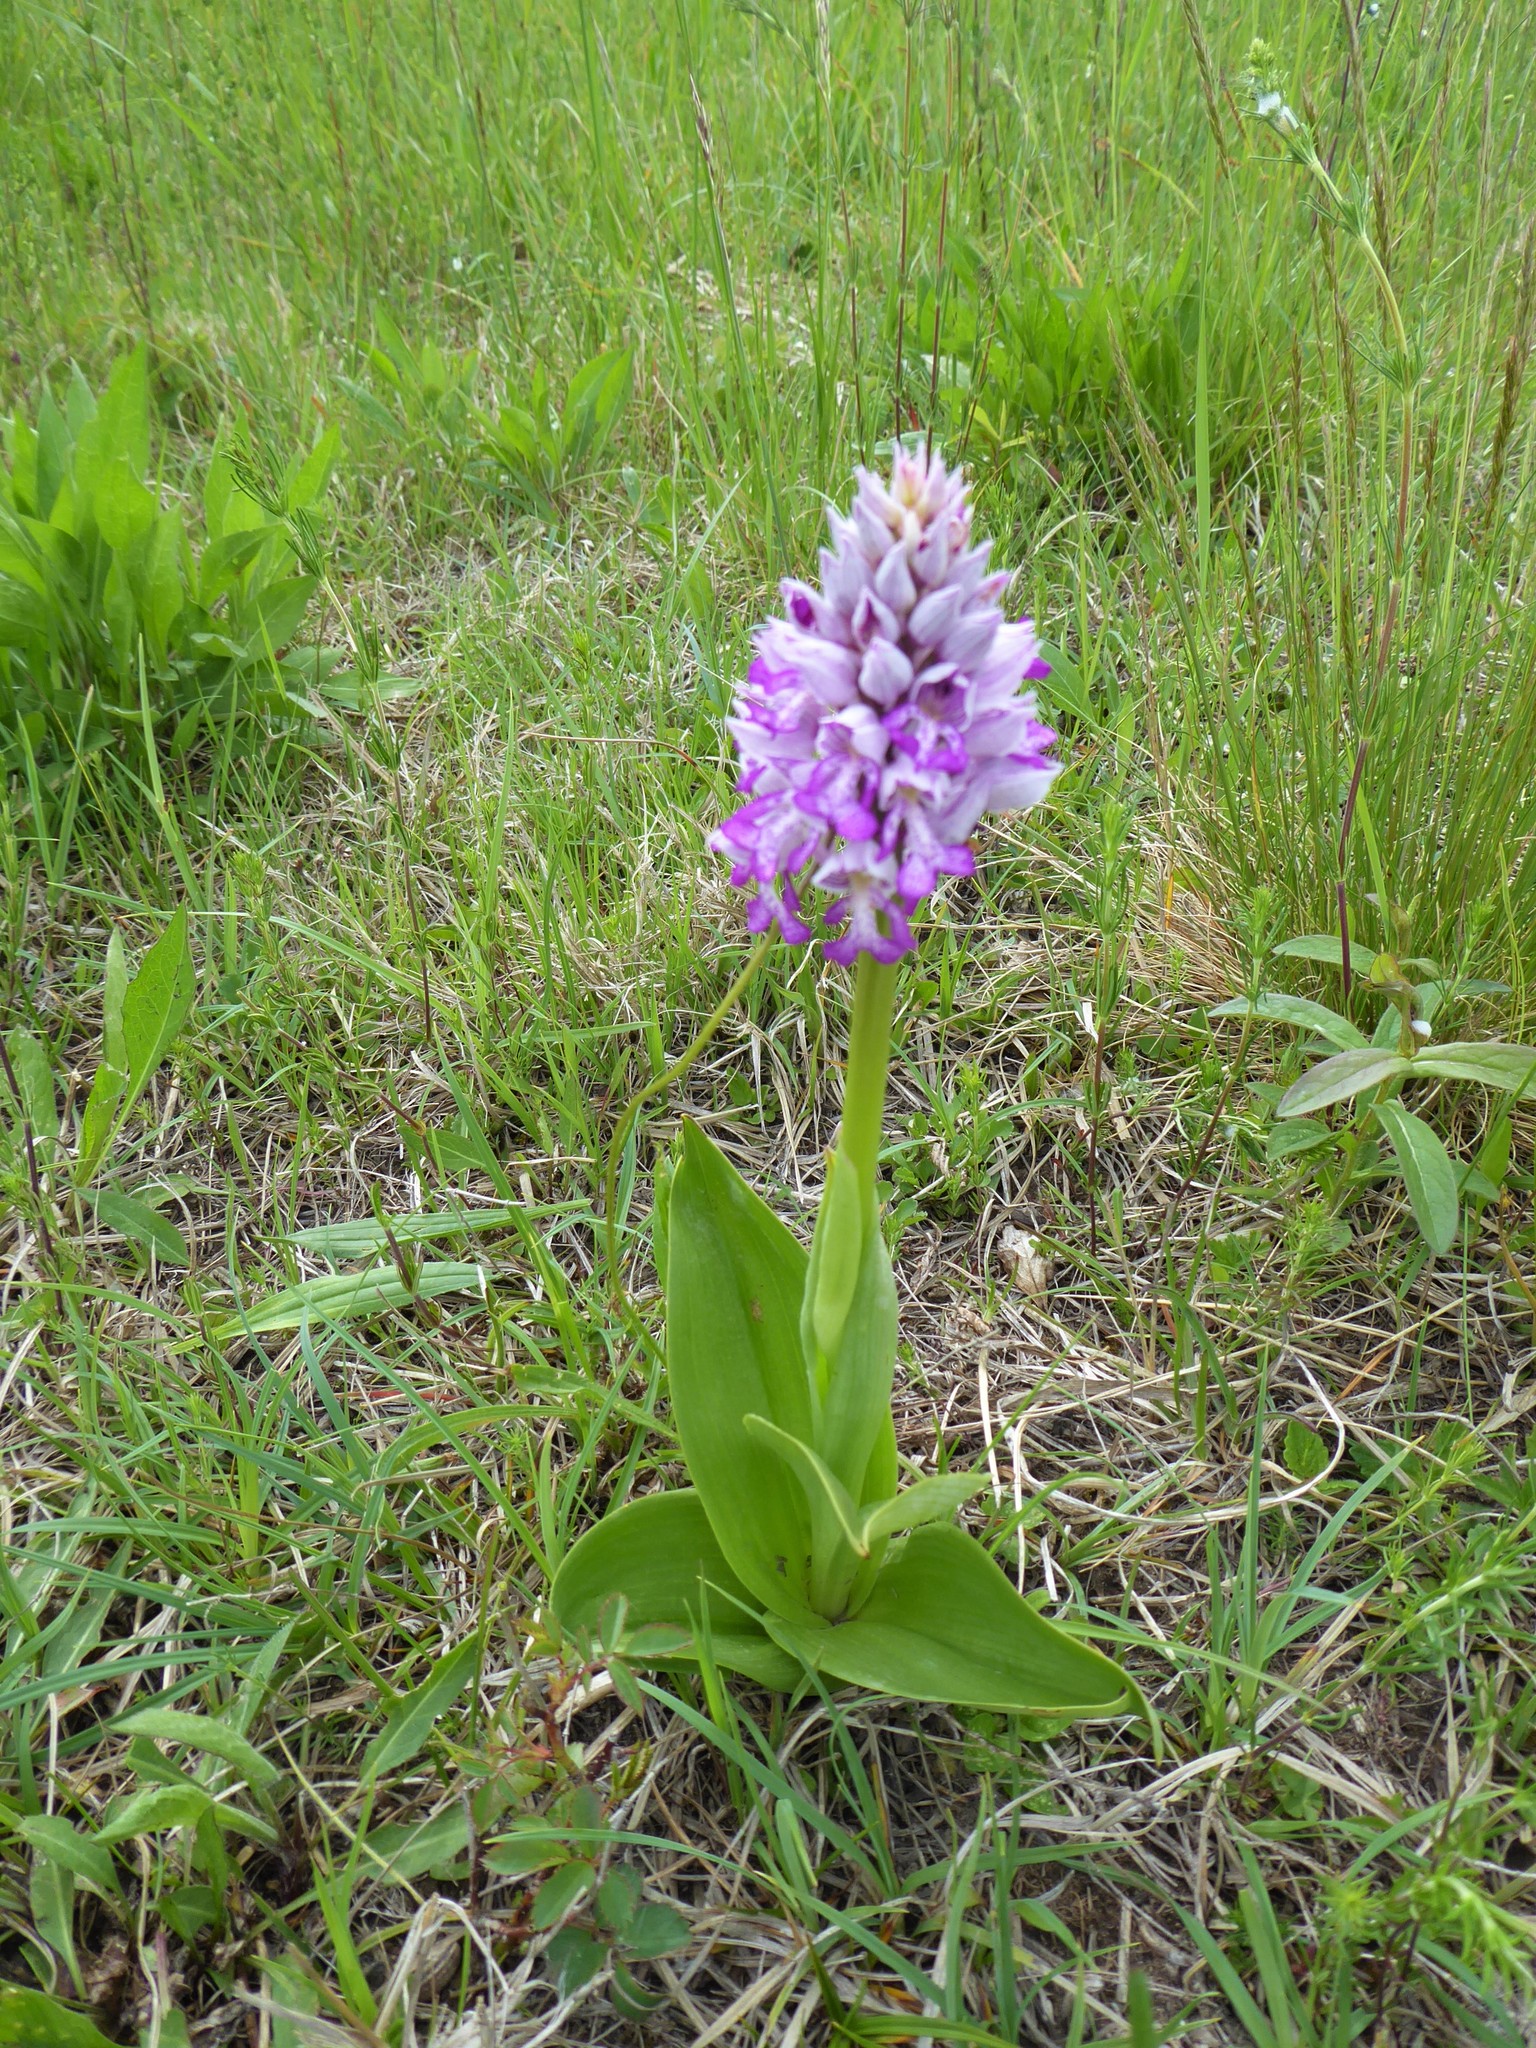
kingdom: Plantae
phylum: Tracheophyta
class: Liliopsida
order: Asparagales
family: Orchidaceae
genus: Orchis
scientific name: Orchis militaris
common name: Military orchid
